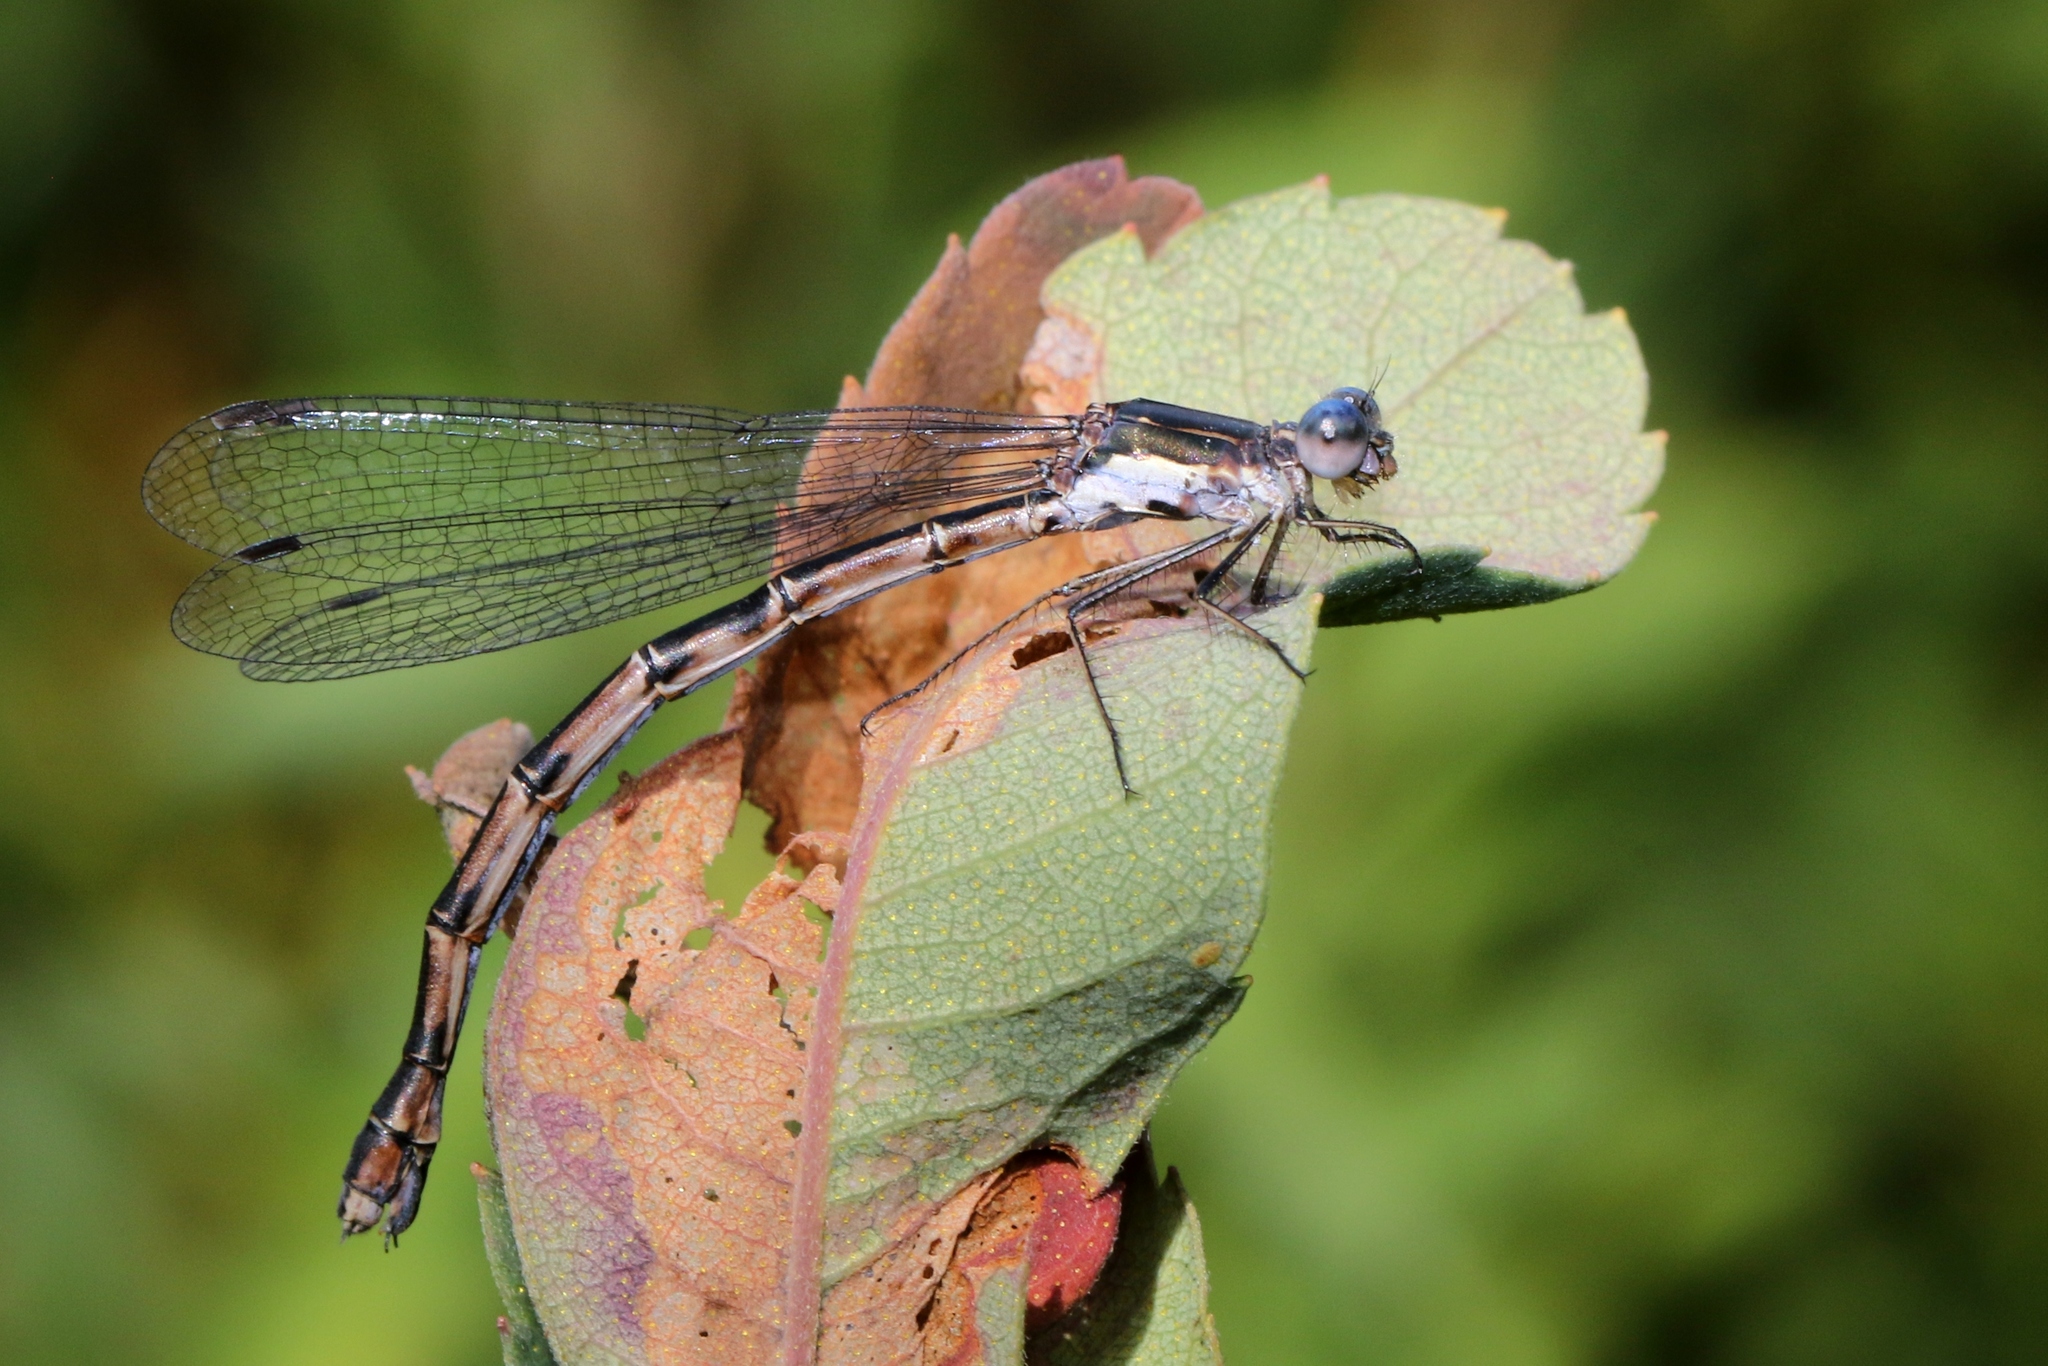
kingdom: Animalia
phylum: Arthropoda
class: Insecta
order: Odonata
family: Lestidae
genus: Lestes
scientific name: Lestes congener
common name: Spotted spreadwing
